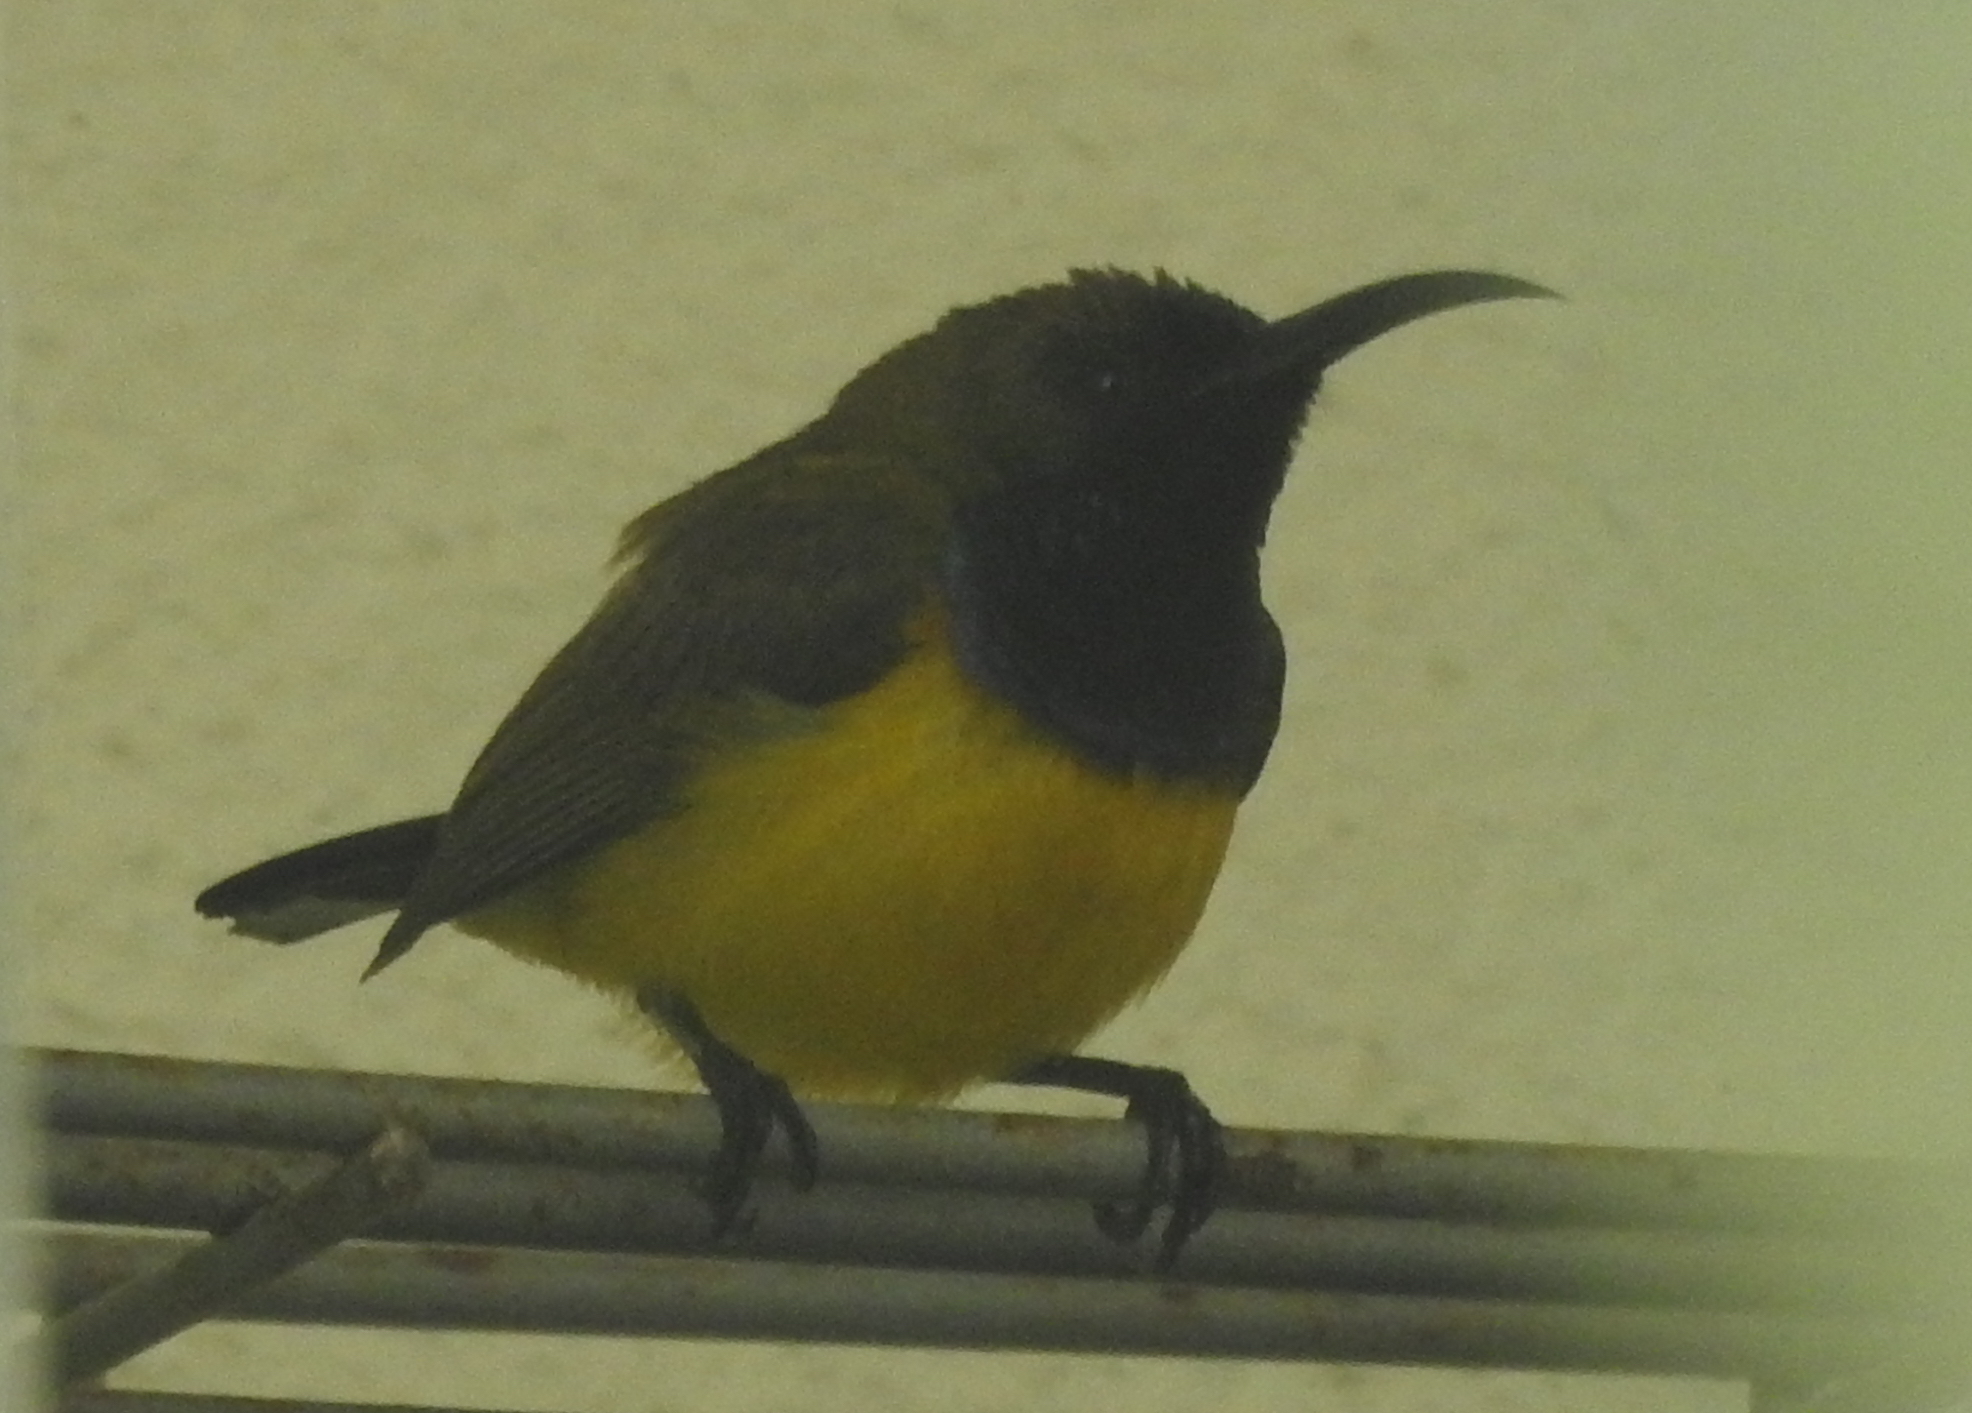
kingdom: Animalia
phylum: Chordata
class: Aves
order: Passeriformes
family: Nectariniidae
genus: Cinnyris
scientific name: Cinnyris
